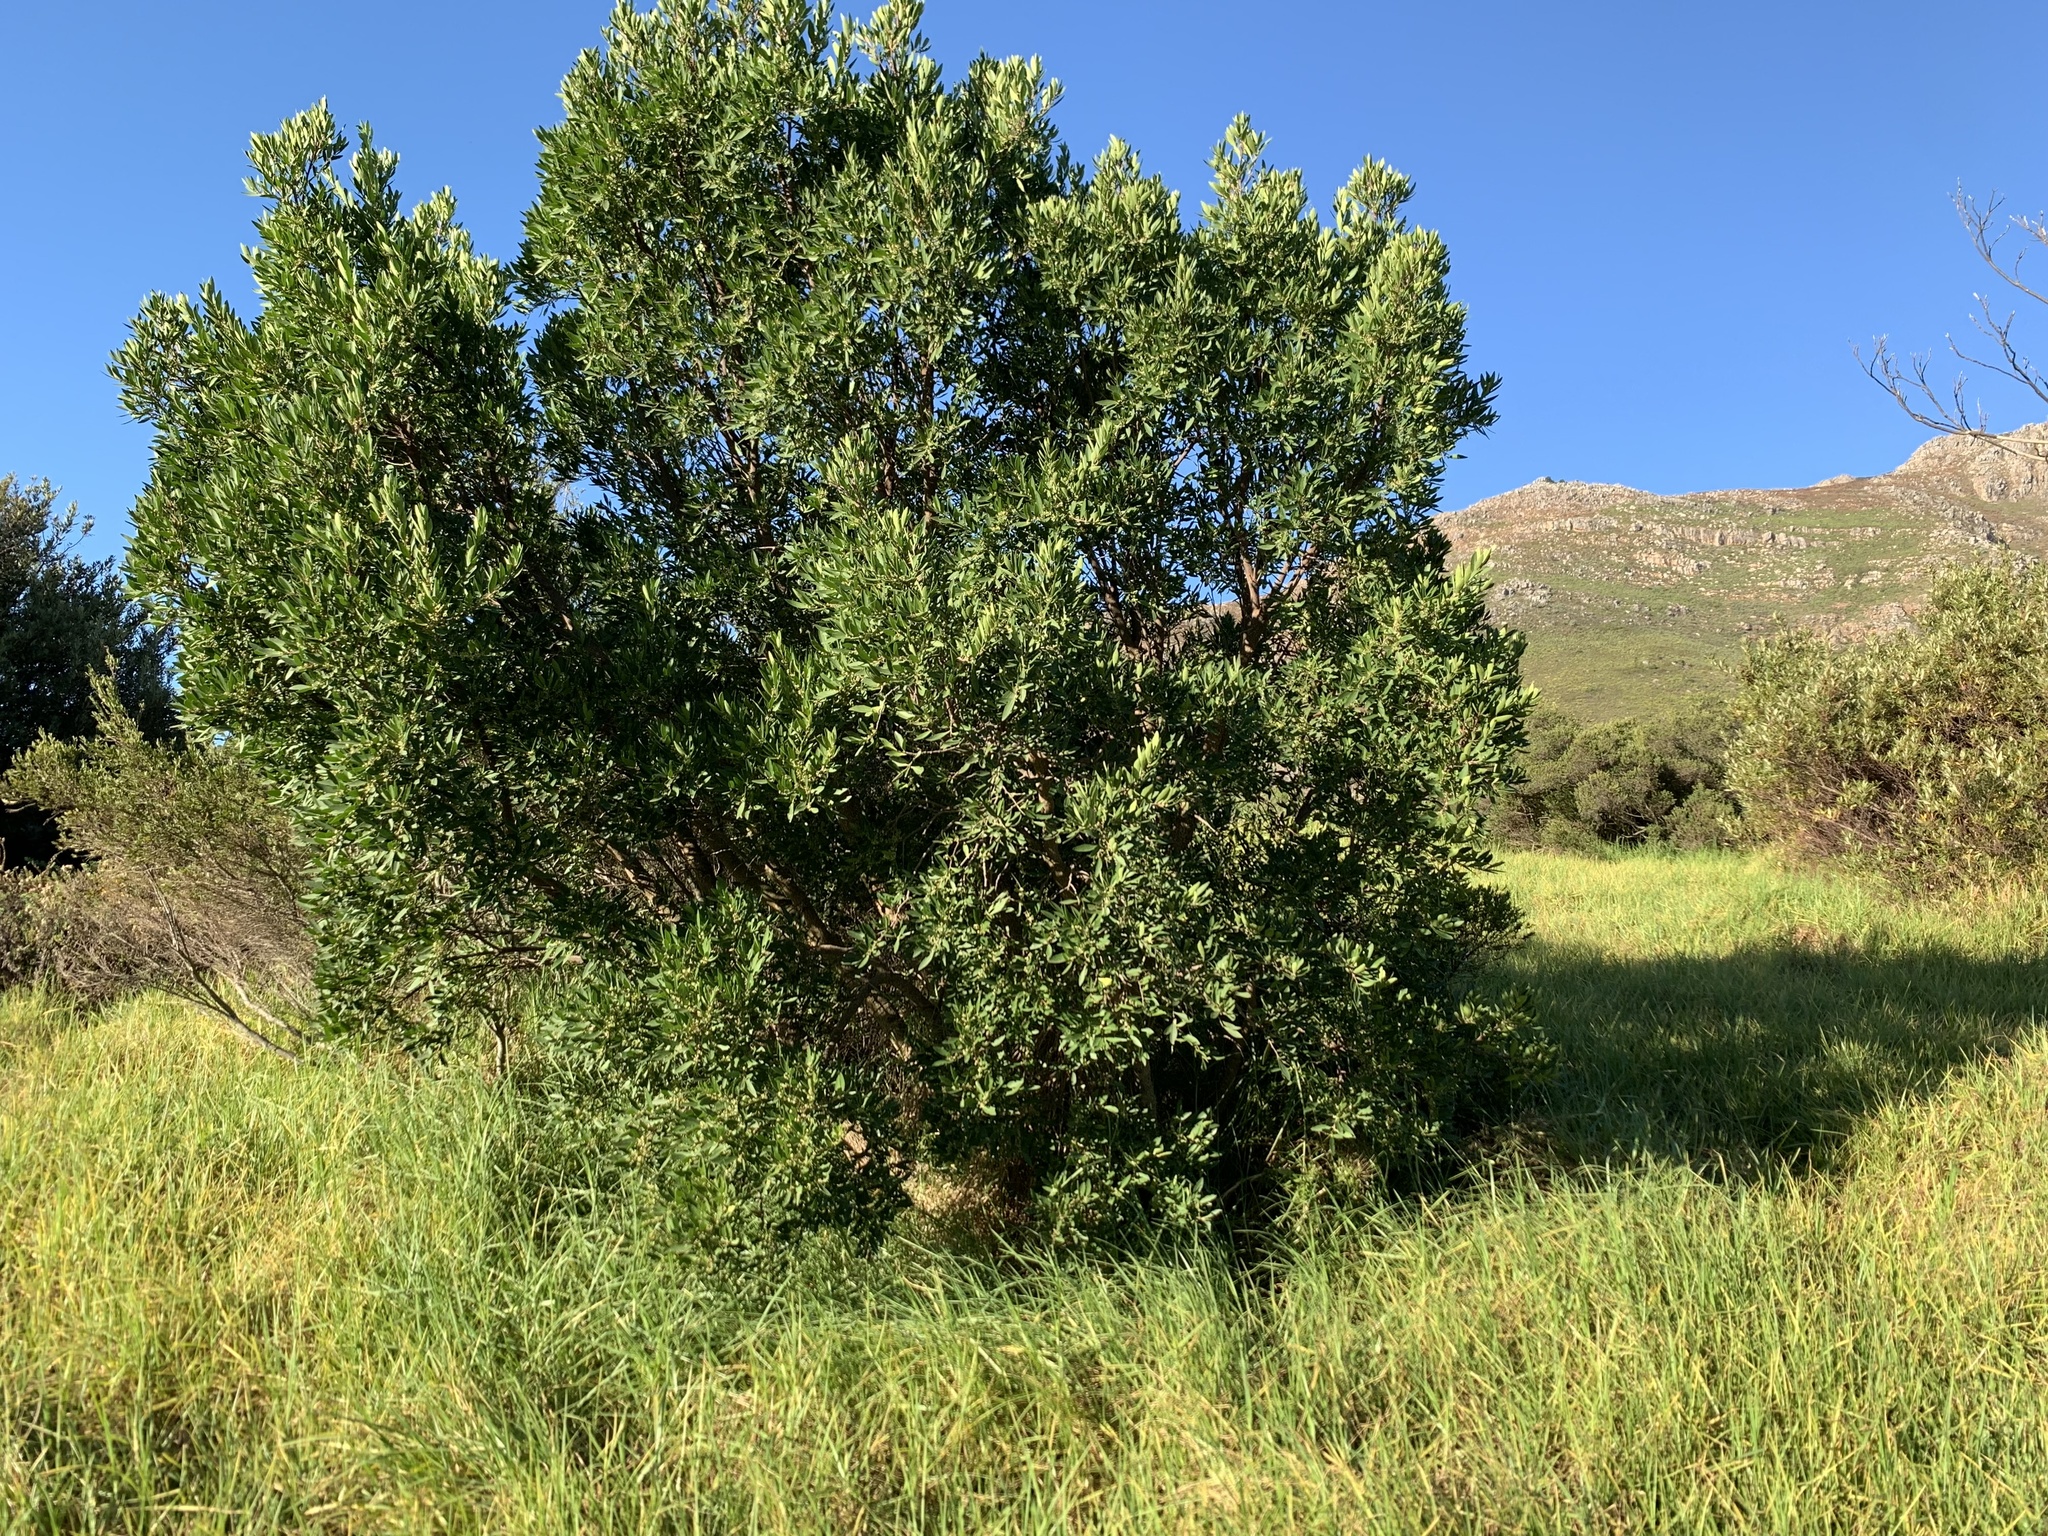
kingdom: Plantae
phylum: Tracheophyta
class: Magnoliopsida
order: Celastrales
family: Celastraceae
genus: Gymnosporia
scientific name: Gymnosporia laurina
